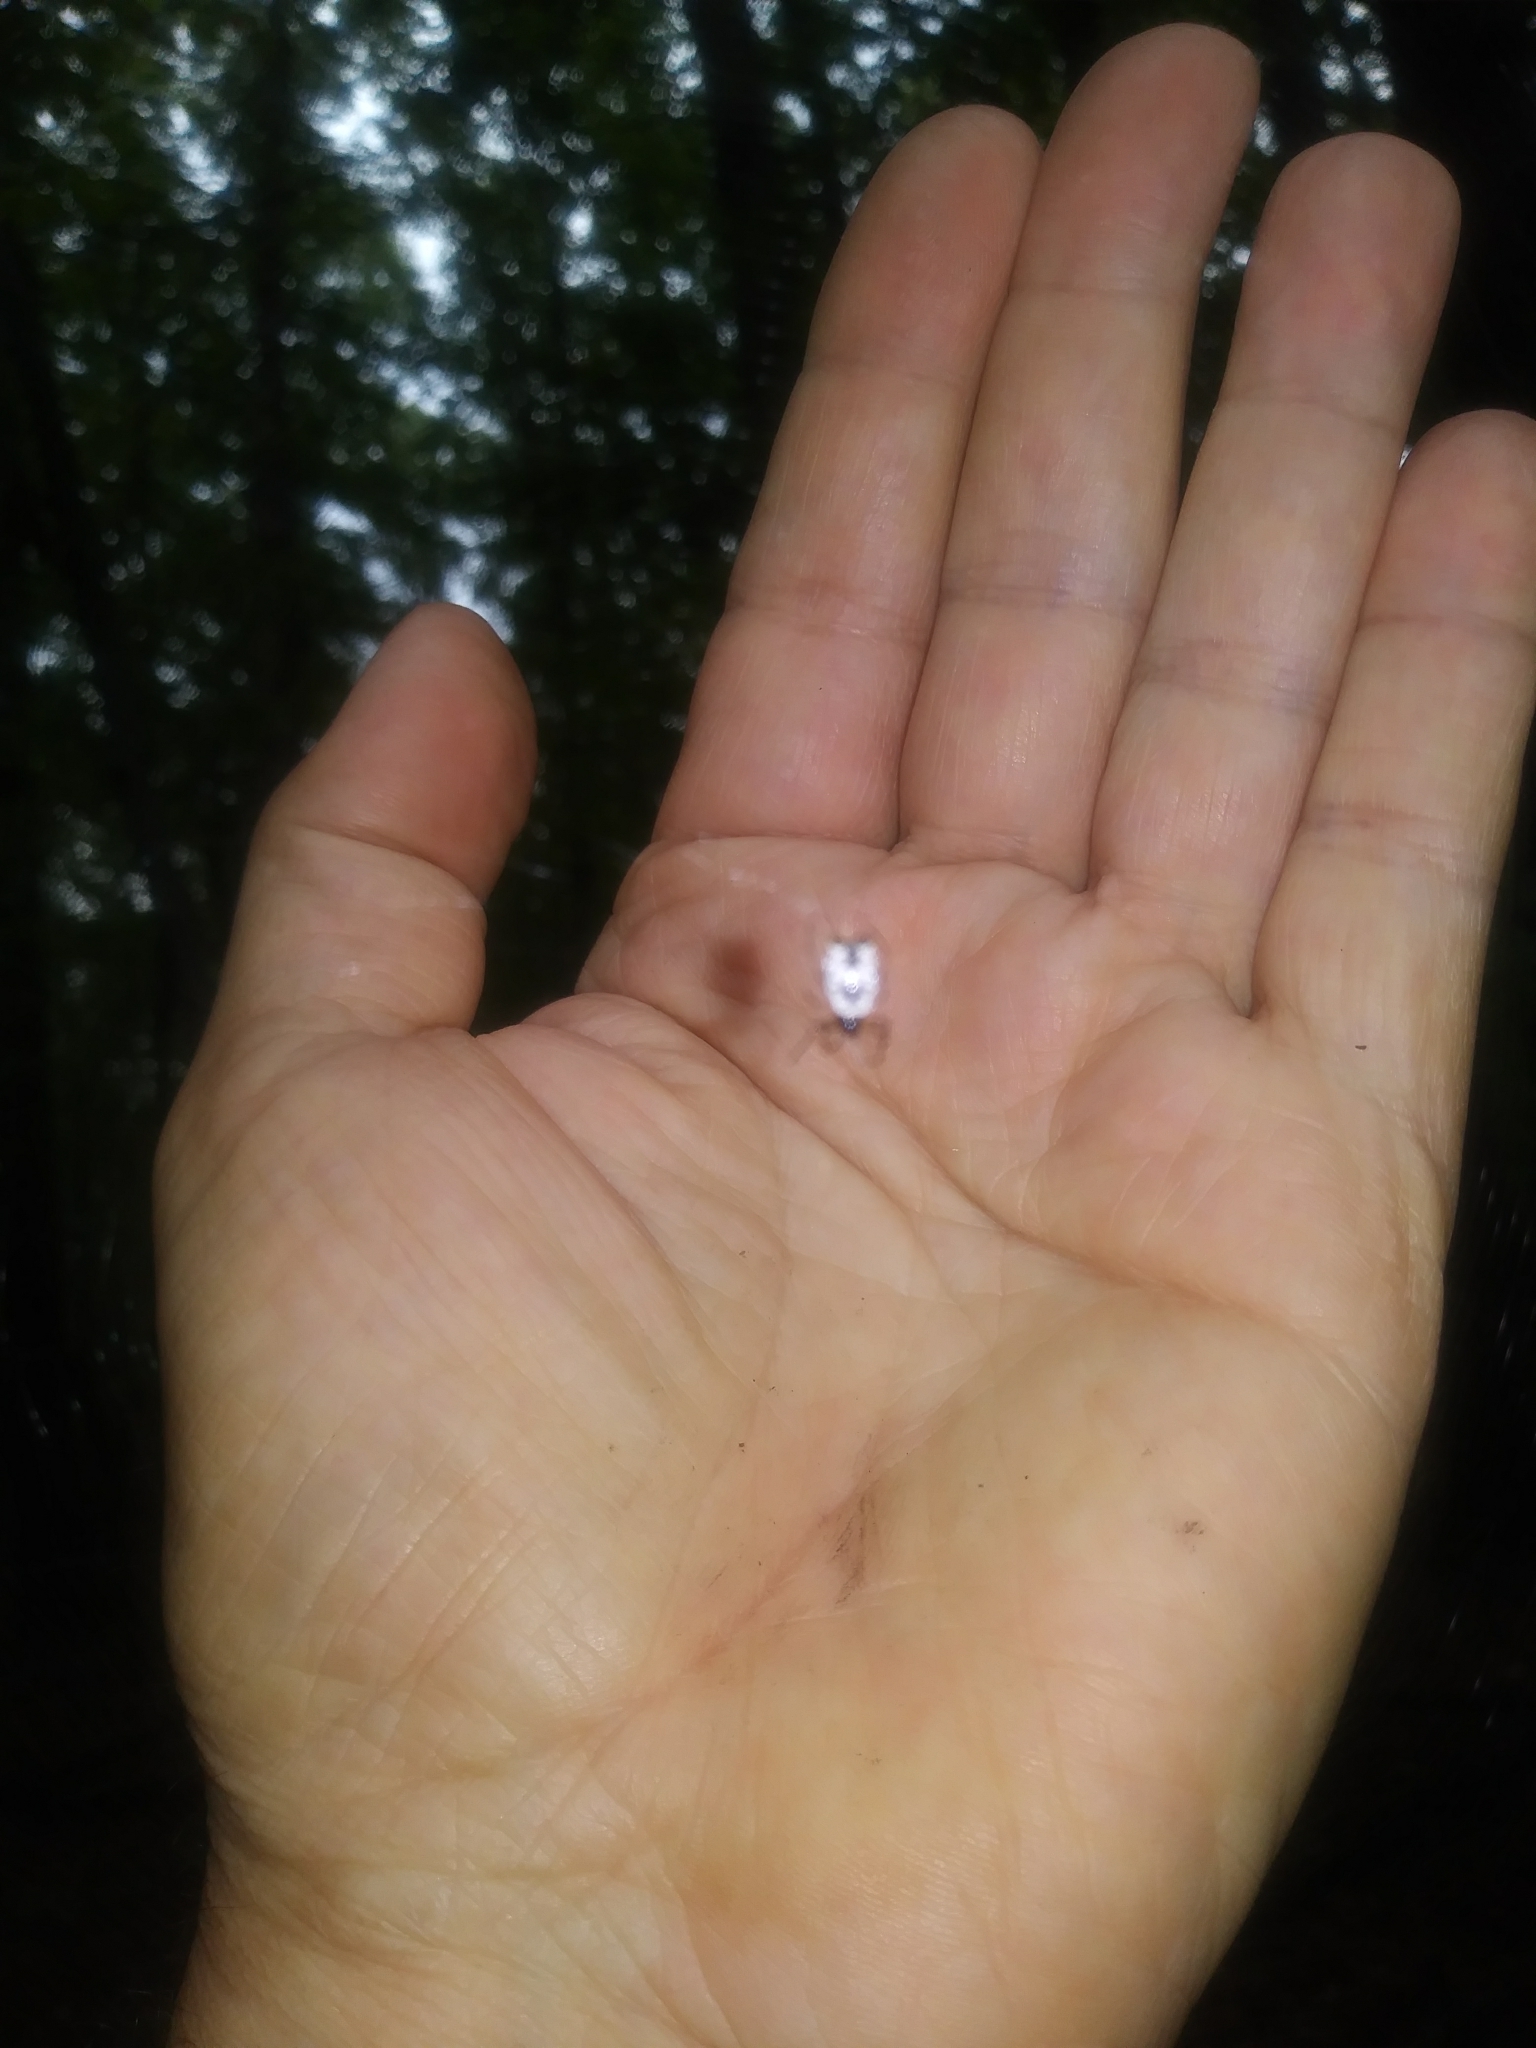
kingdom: Animalia
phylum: Arthropoda
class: Arachnida
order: Araneae
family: Araneidae
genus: Micrathena
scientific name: Micrathena mitrata
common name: Orb weavers
